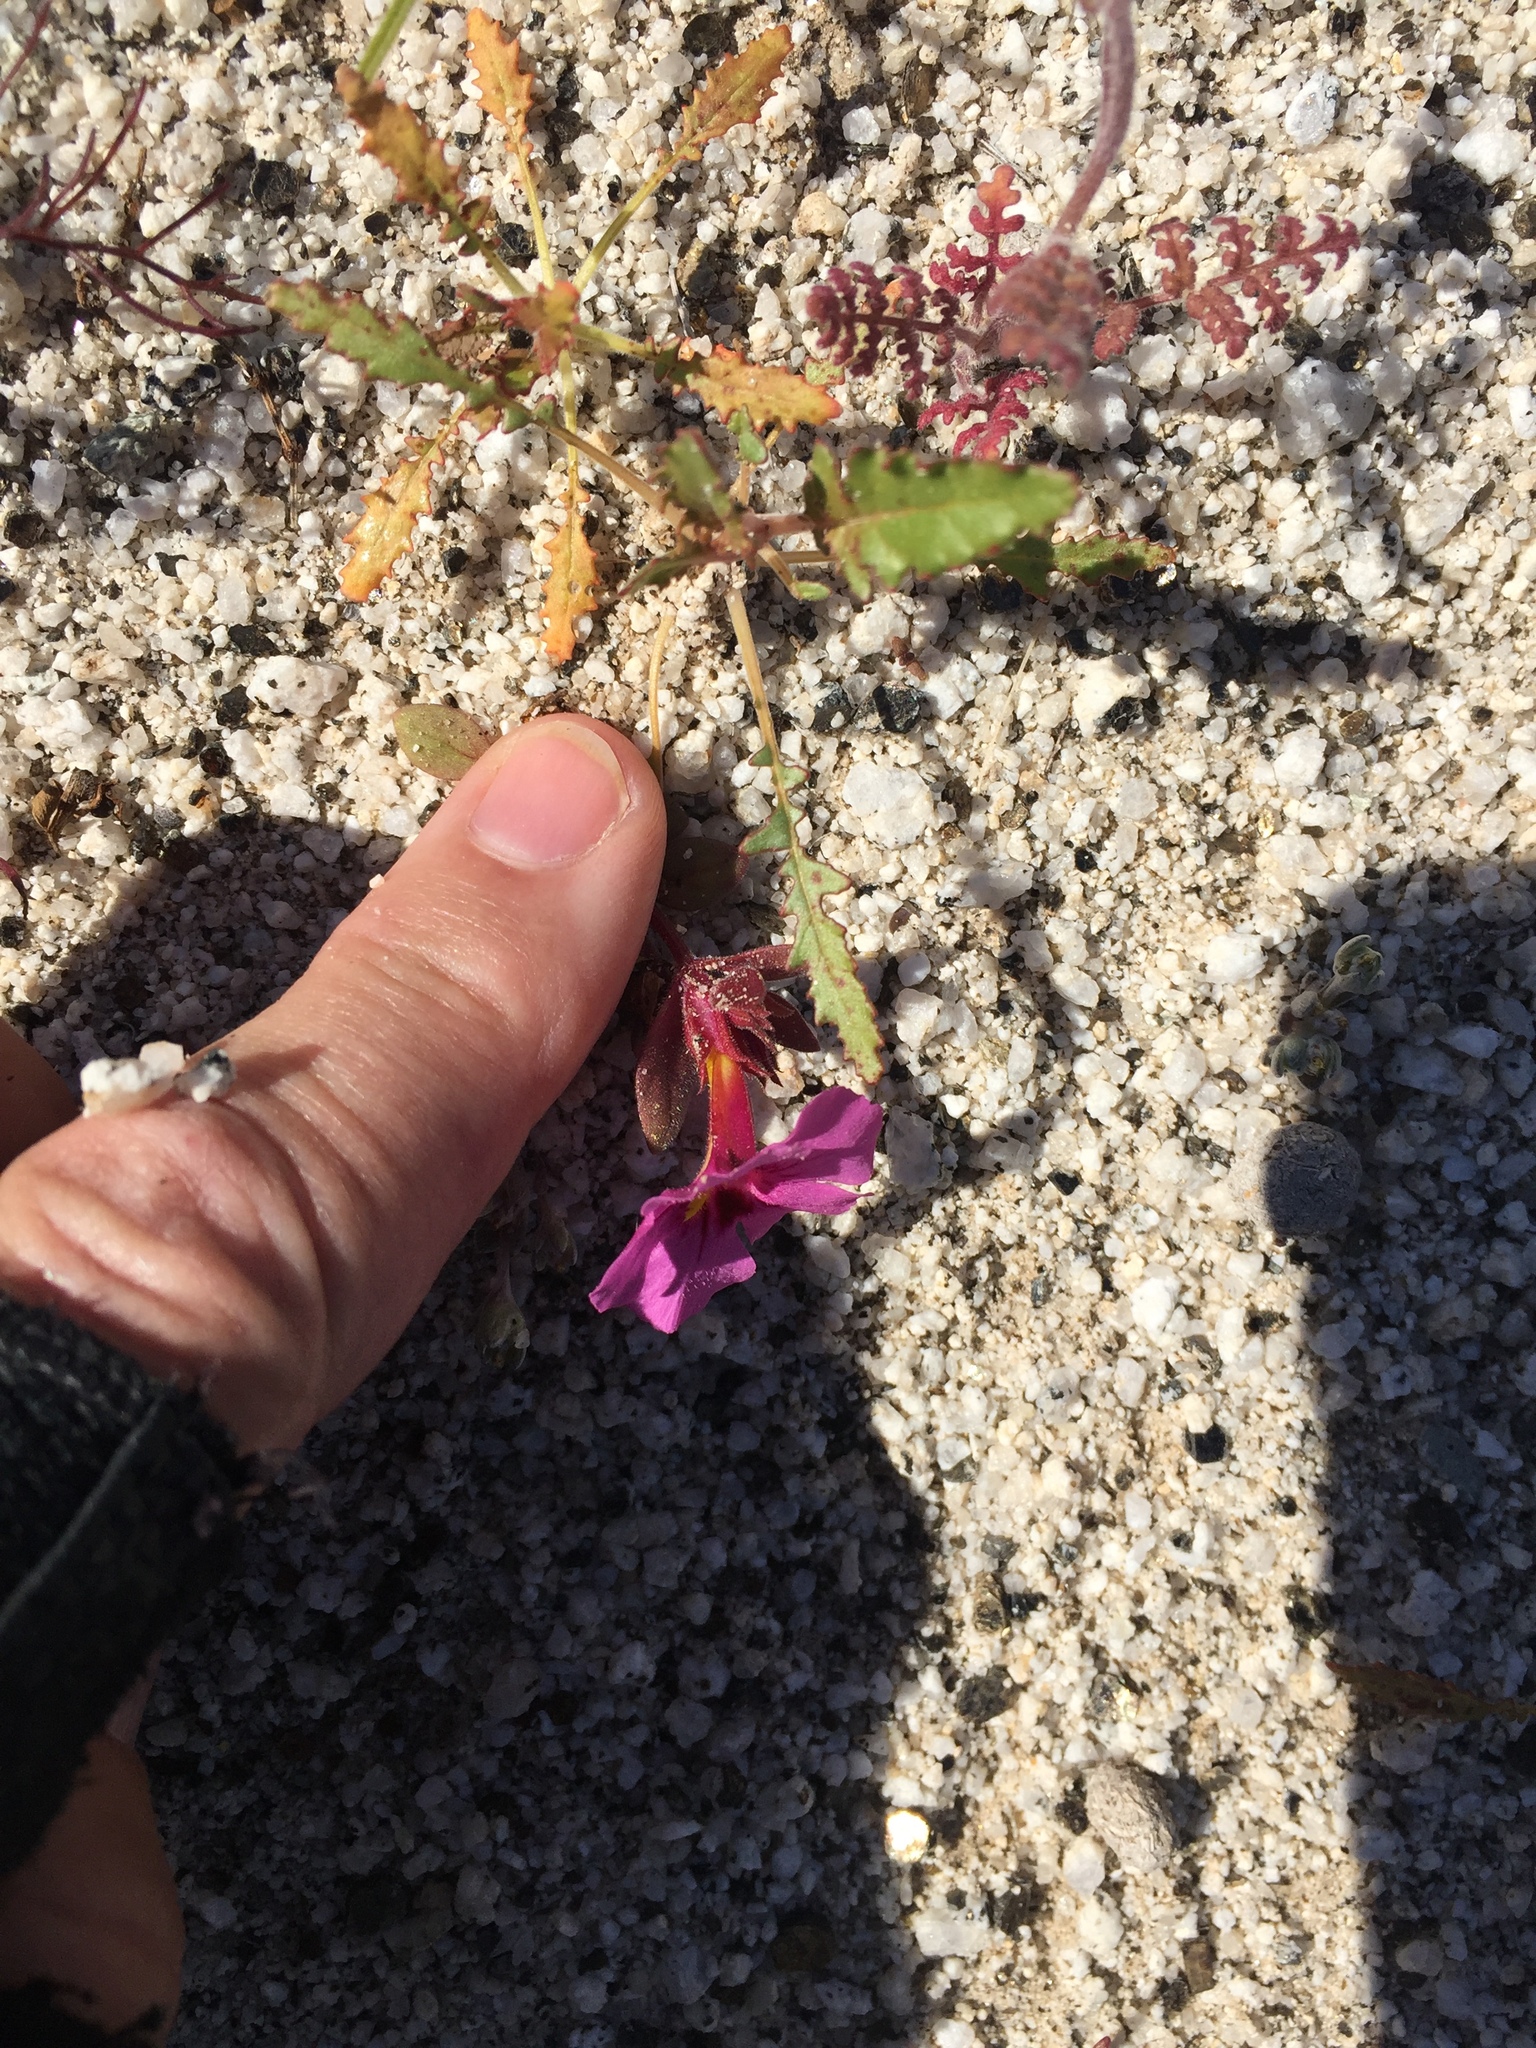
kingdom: Plantae
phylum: Tracheophyta
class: Magnoliopsida
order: Lamiales
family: Phrymaceae
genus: Diplacus
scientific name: Diplacus bigelovii
